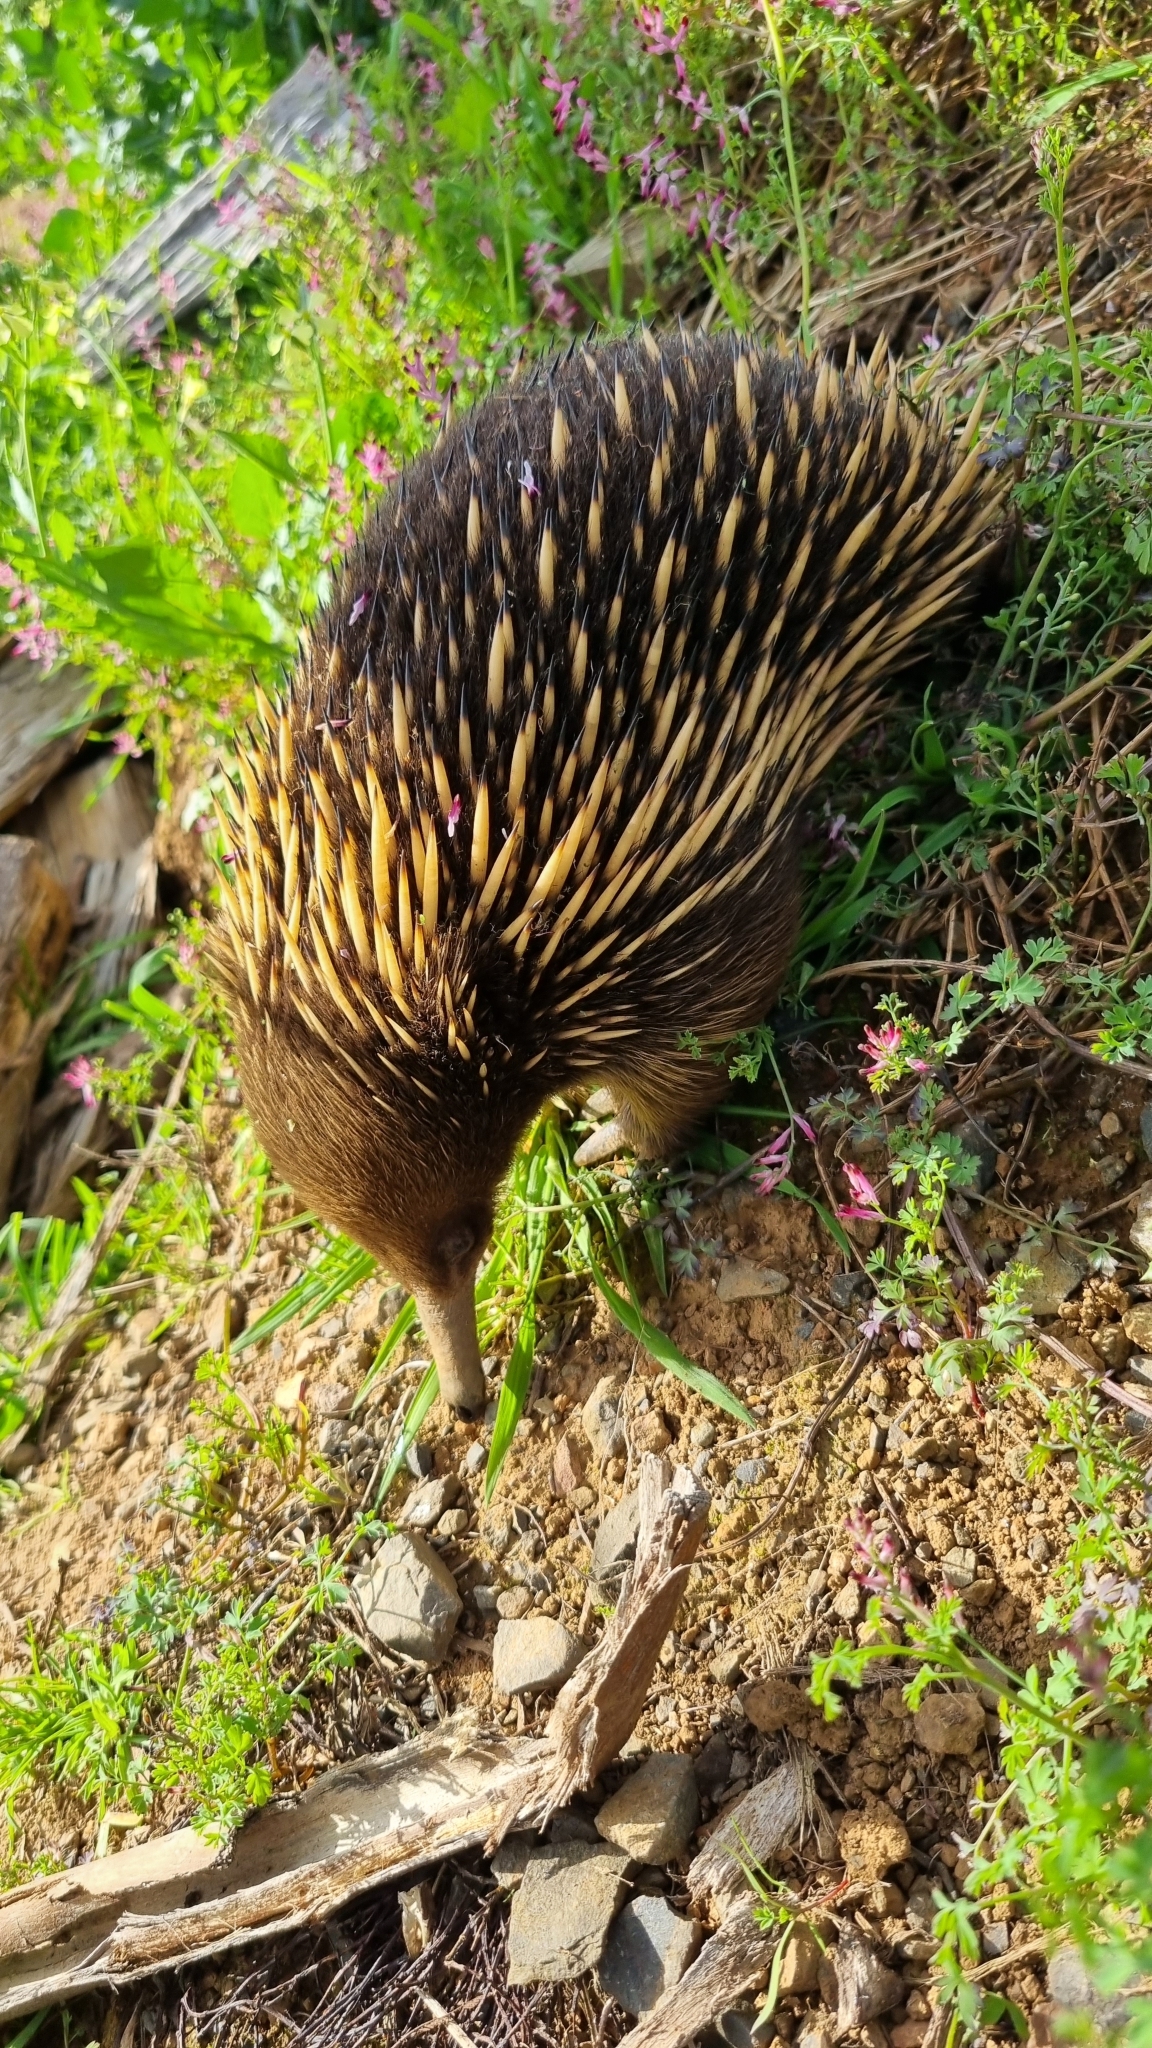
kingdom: Animalia
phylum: Chordata
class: Mammalia
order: Monotremata
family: Tachyglossidae
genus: Tachyglossus
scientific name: Tachyglossus aculeatus
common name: Short-beaked echidna
